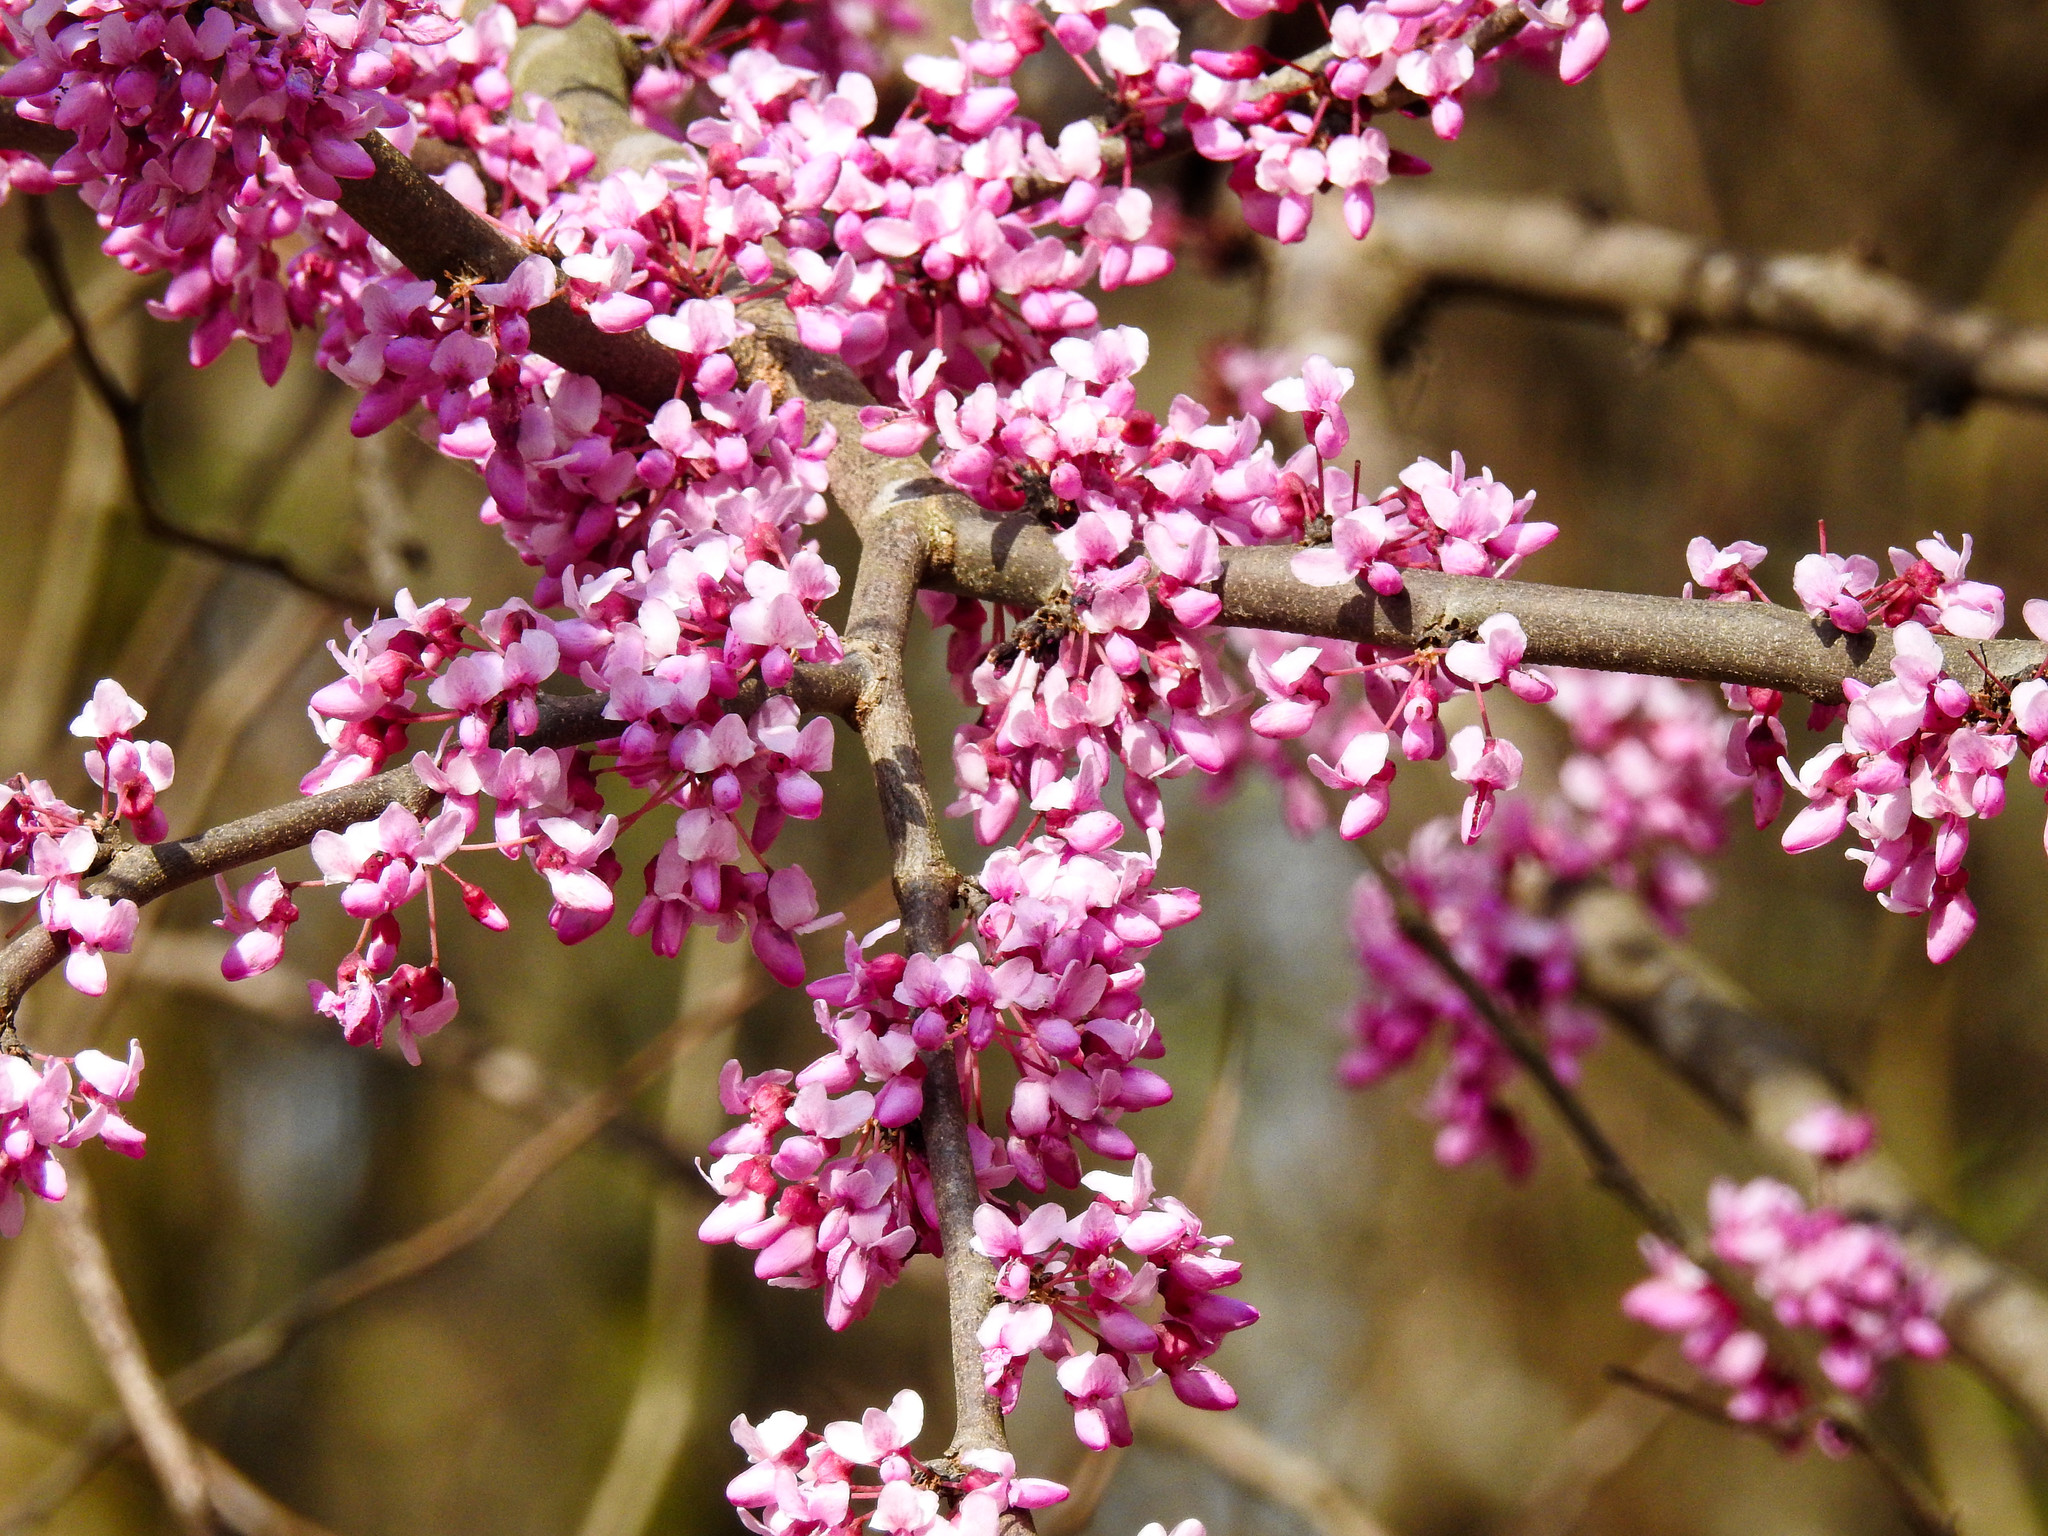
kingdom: Plantae
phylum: Tracheophyta
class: Magnoliopsida
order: Fabales
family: Fabaceae
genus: Cercis
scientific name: Cercis canadensis
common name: Eastern redbud
